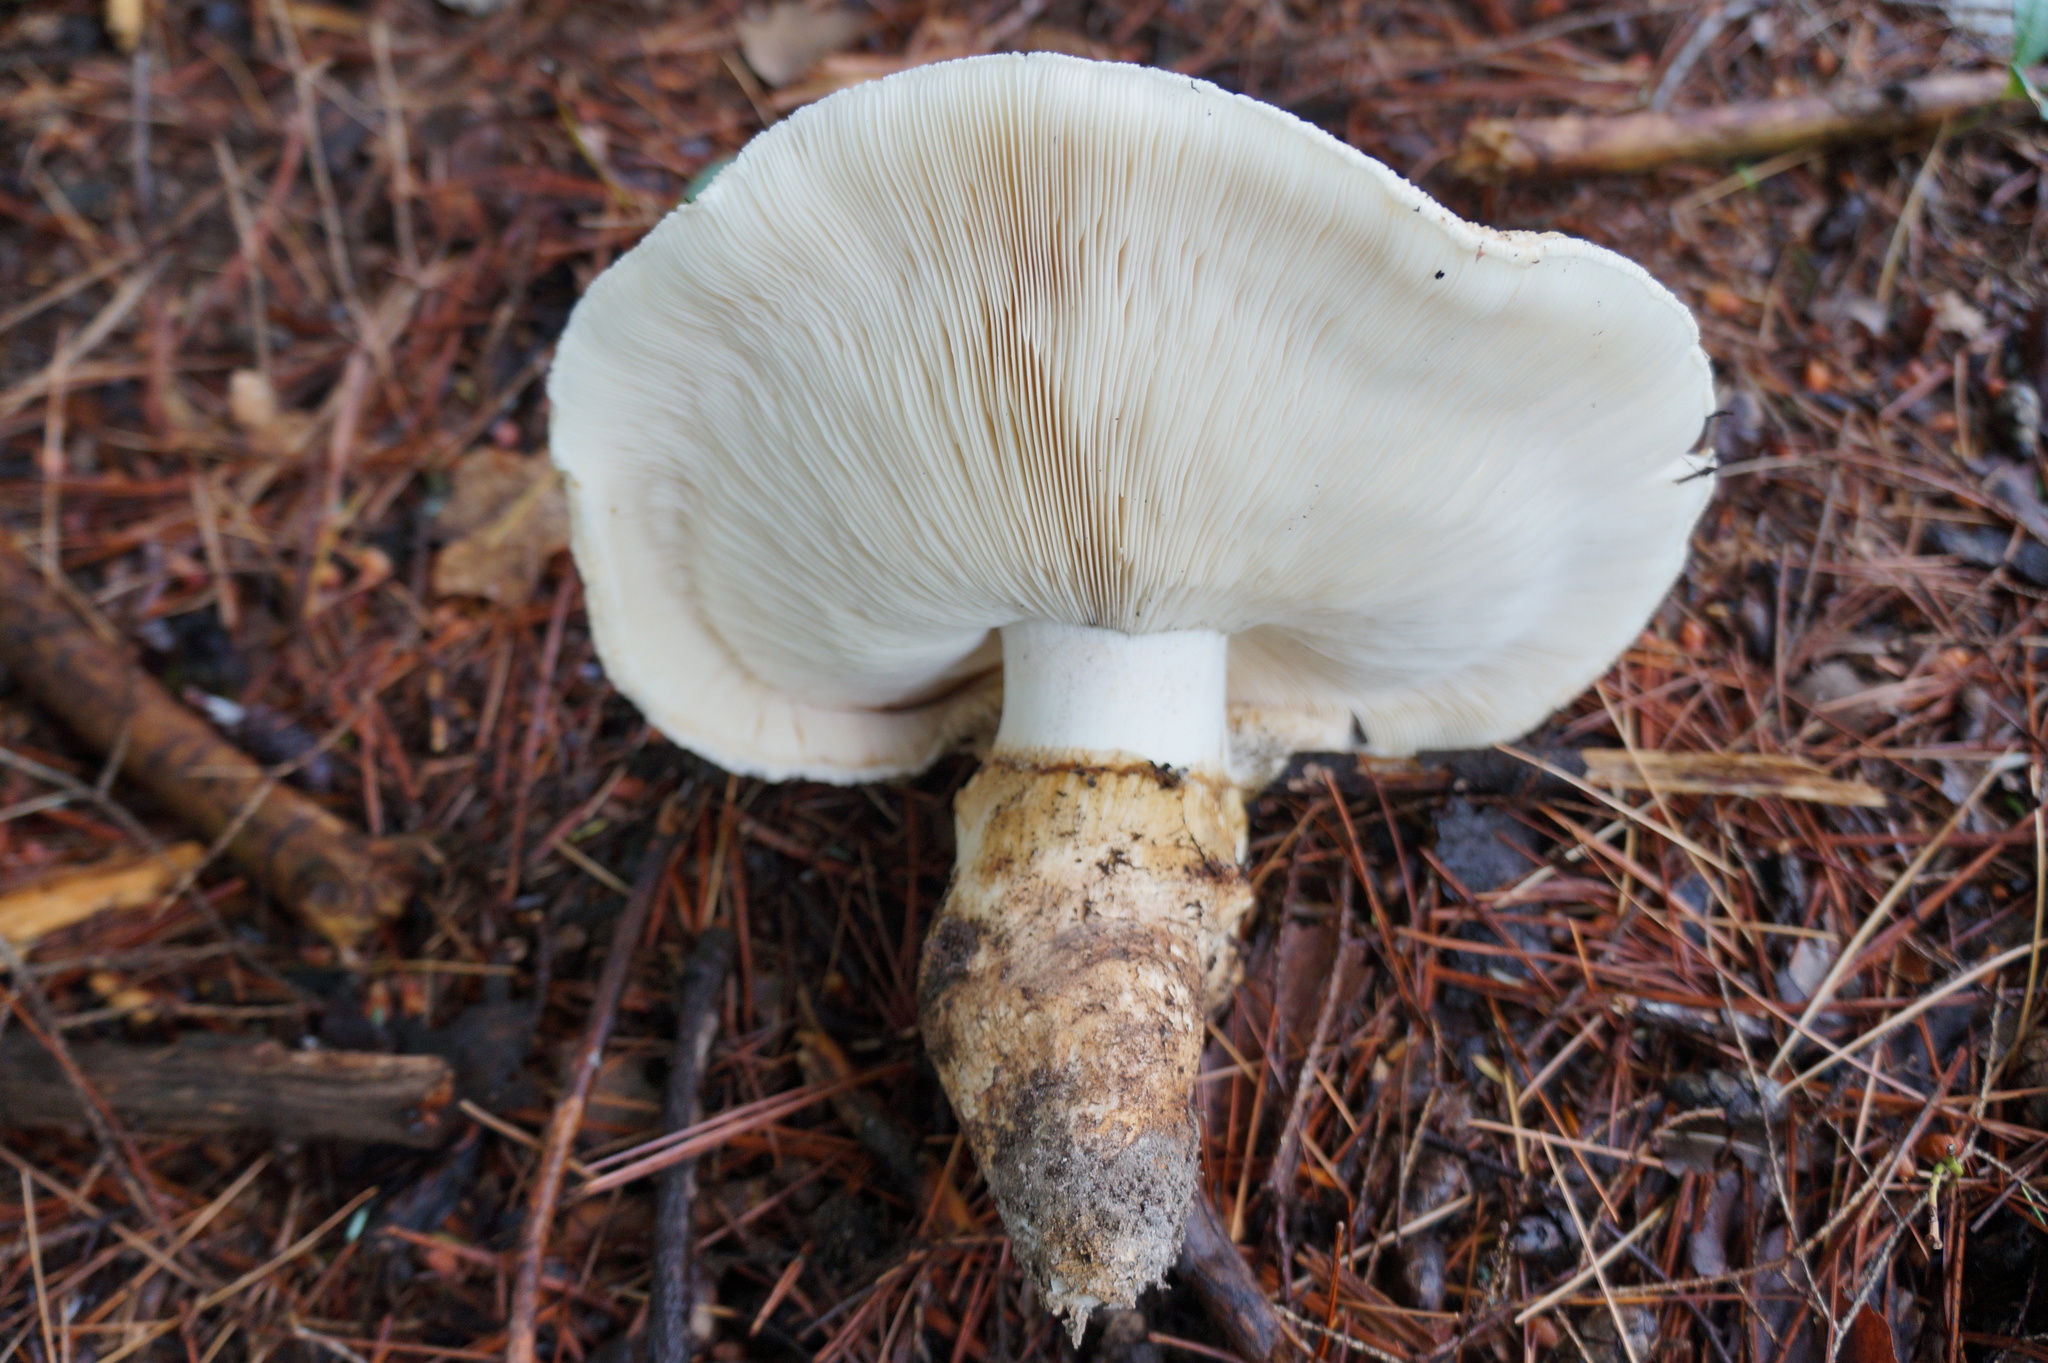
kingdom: Fungi
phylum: Basidiomycota
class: Agaricomycetes
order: Agaricales
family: Tricholomataceae
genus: Tricholoma
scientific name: Tricholoma magnivelare
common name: American matsutake
